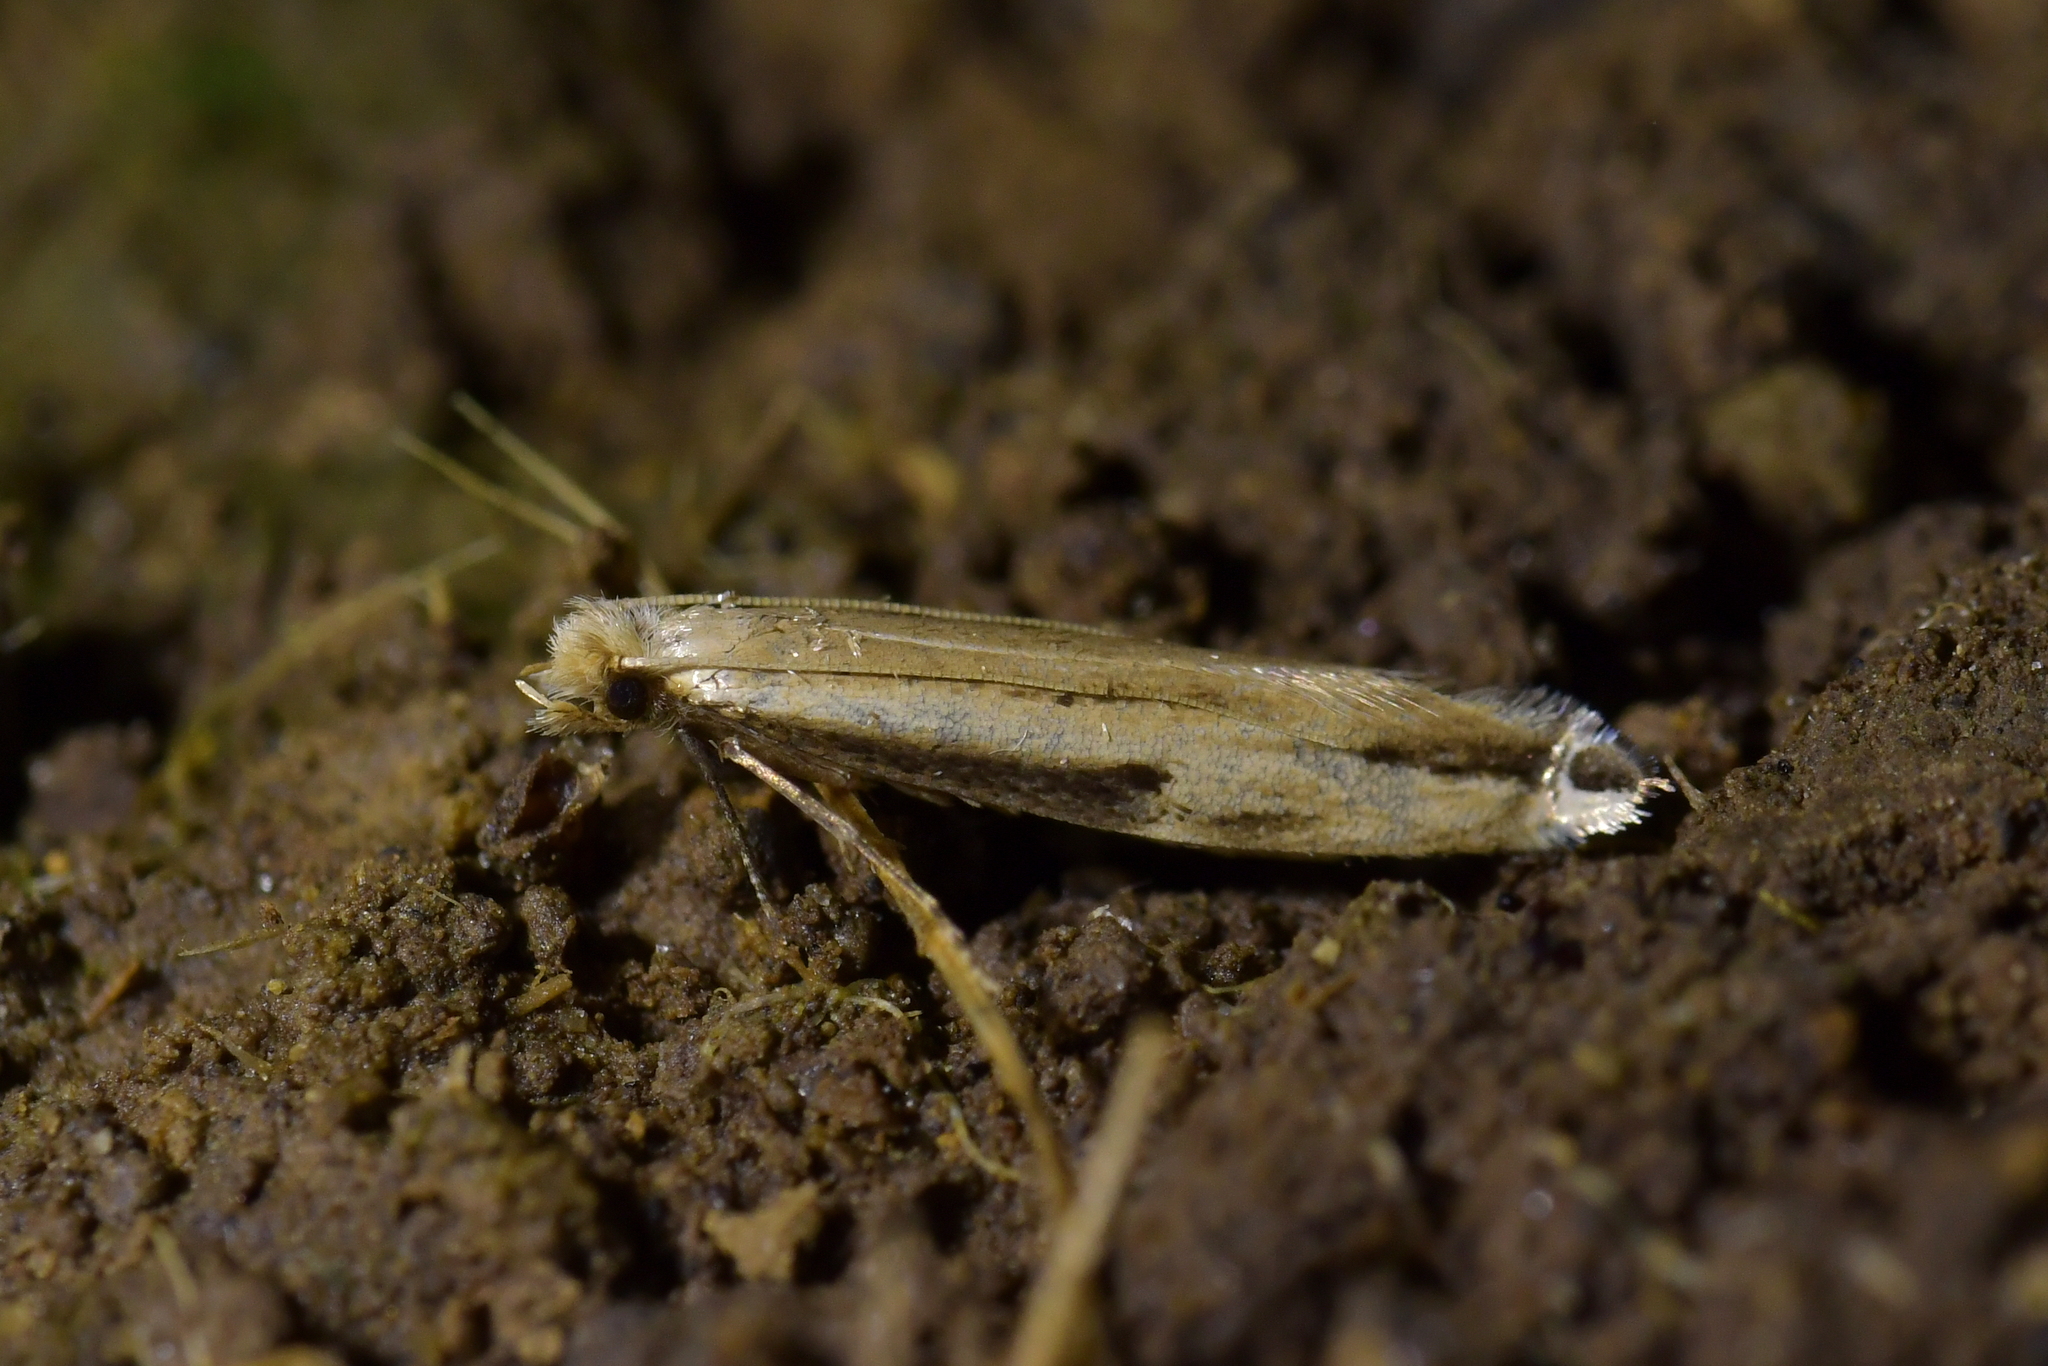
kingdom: Animalia
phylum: Arthropoda
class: Insecta
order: Lepidoptera
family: Tineidae
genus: Erechthias
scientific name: Erechthias hemiclistra
